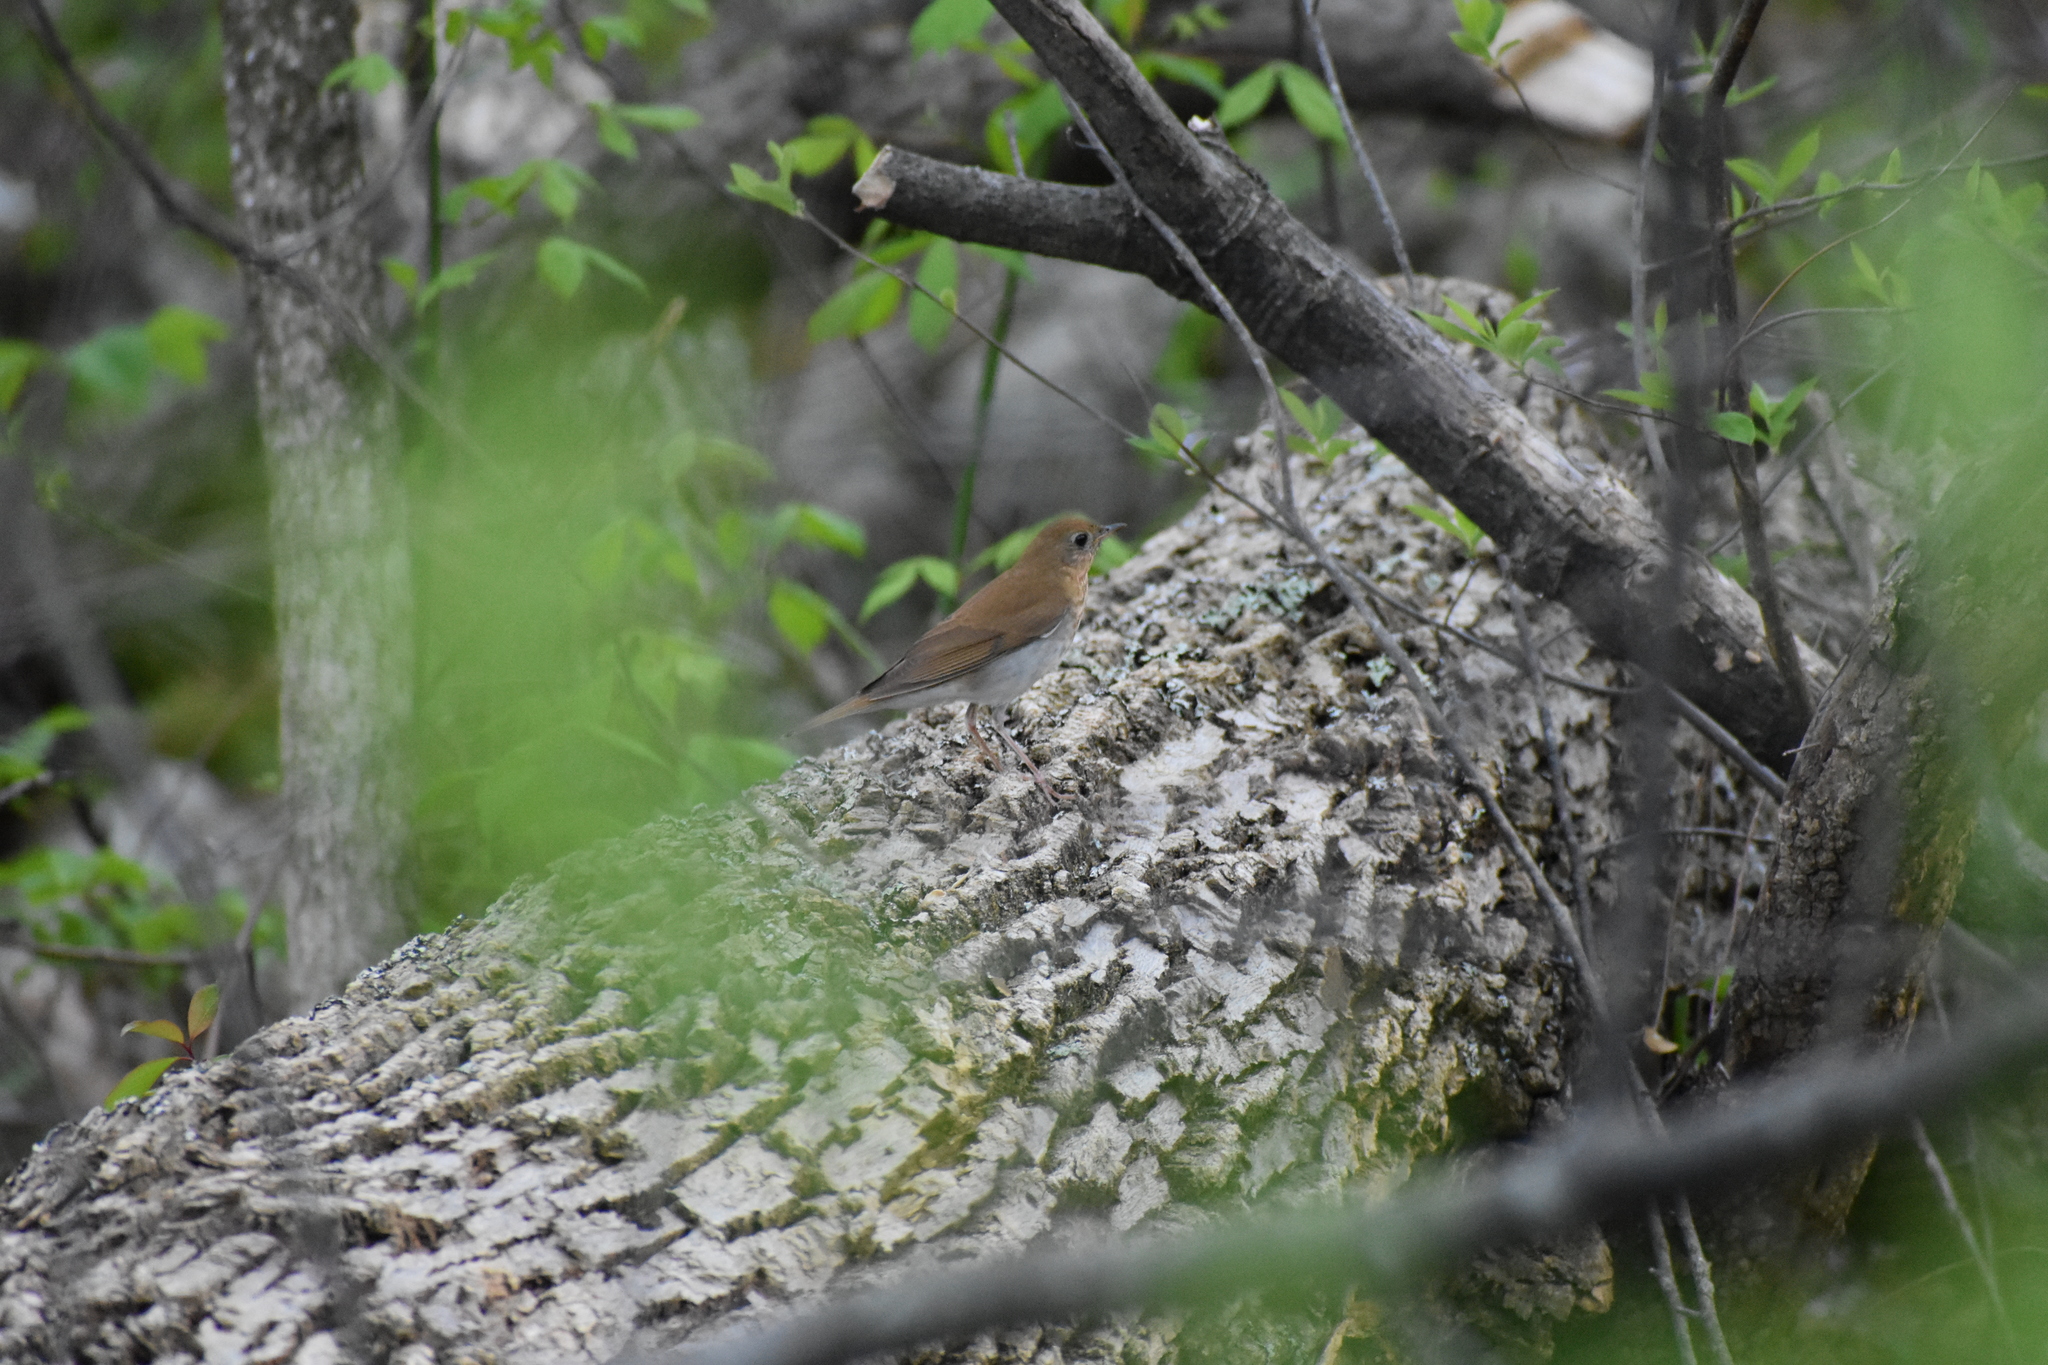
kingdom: Animalia
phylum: Chordata
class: Aves
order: Passeriformes
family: Turdidae
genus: Catharus
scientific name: Catharus fuscescens
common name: Veery
